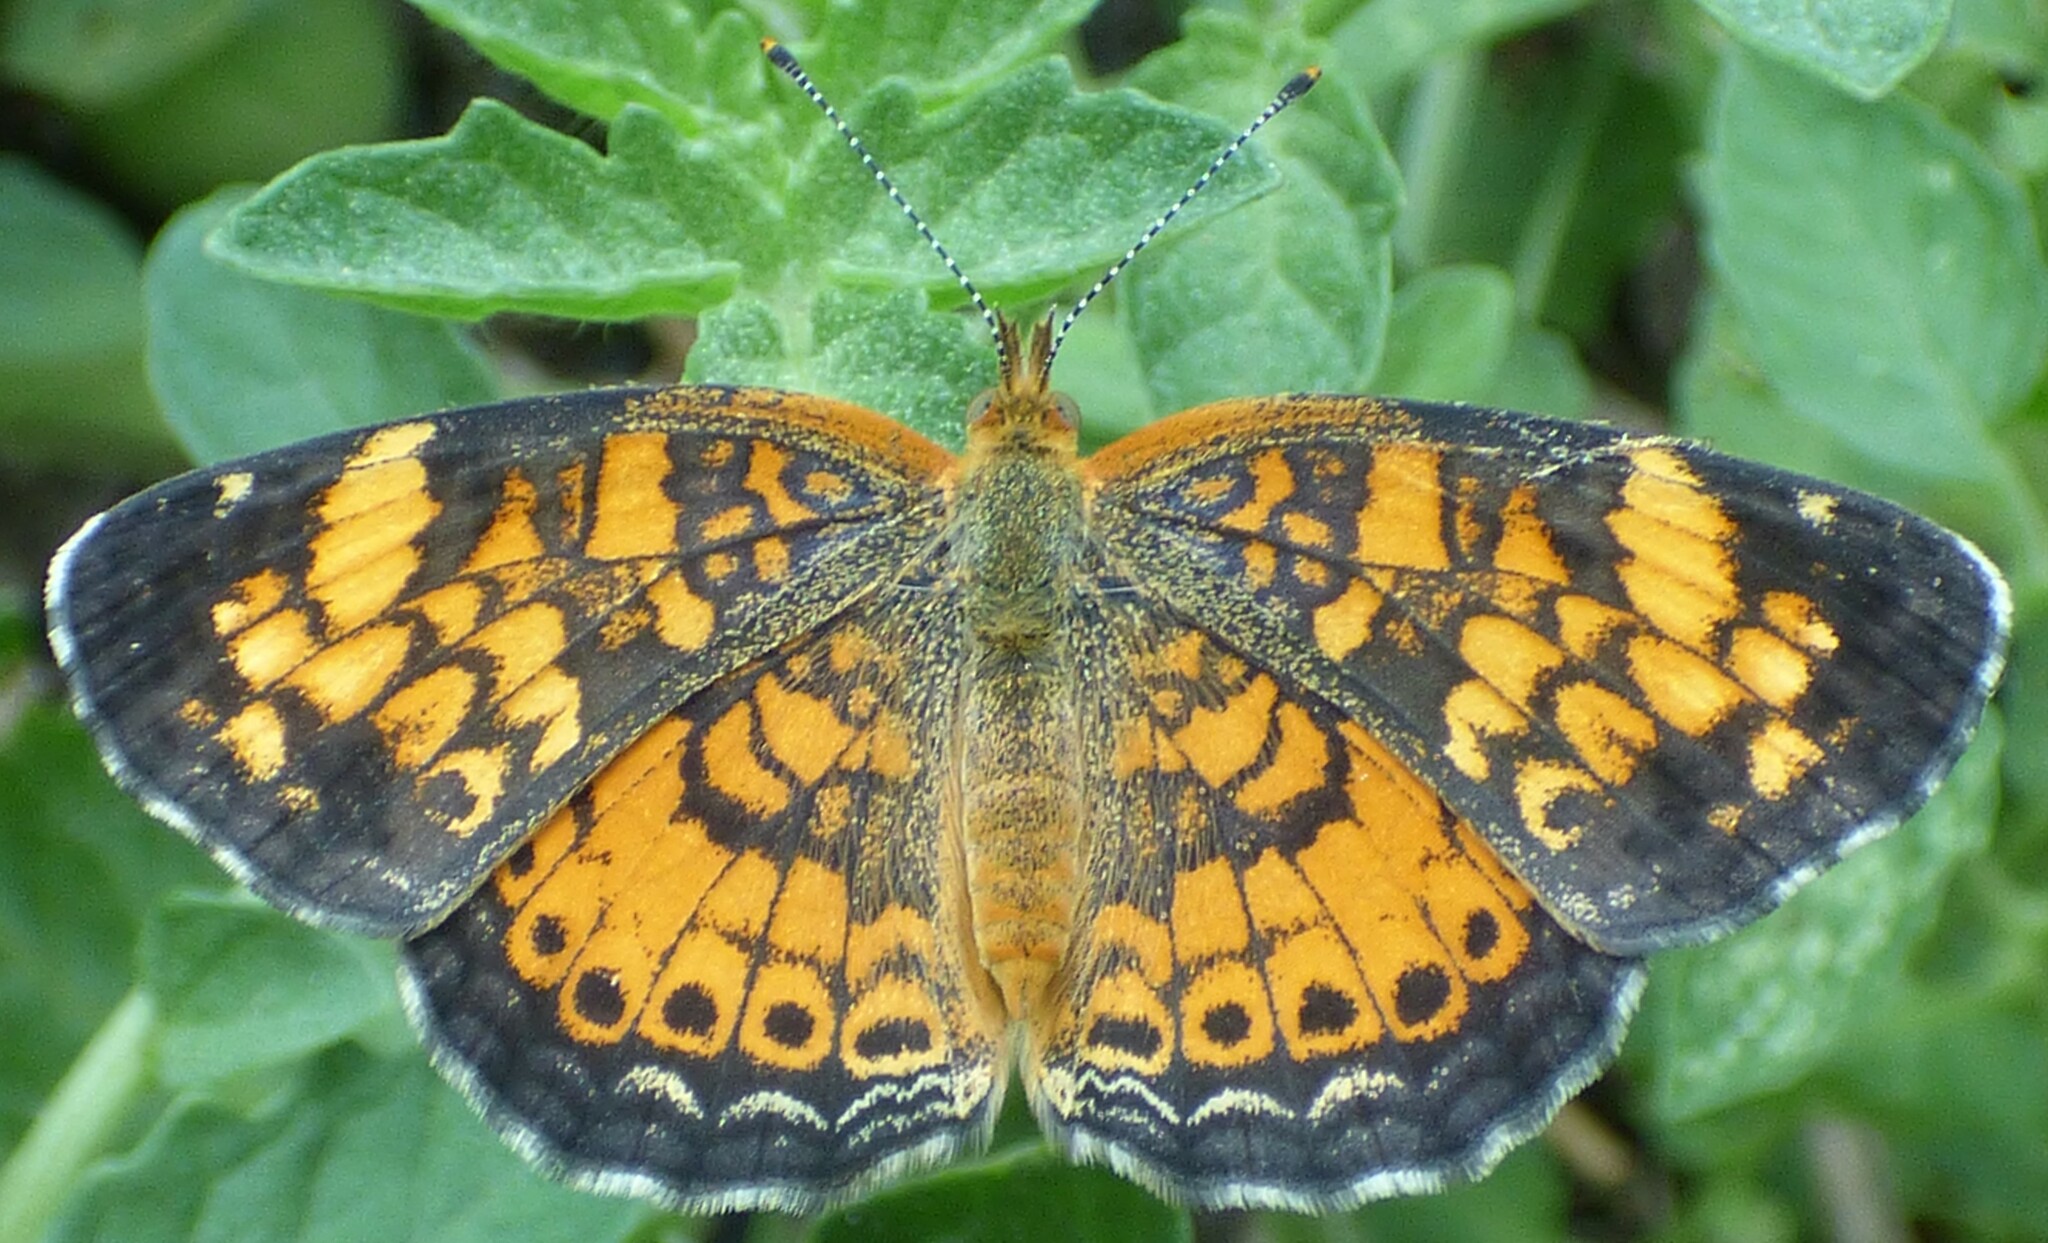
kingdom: Animalia
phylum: Arthropoda
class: Insecta
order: Lepidoptera
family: Nymphalidae
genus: Phyciodes
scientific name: Phyciodes tharos
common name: Pearl crescent
